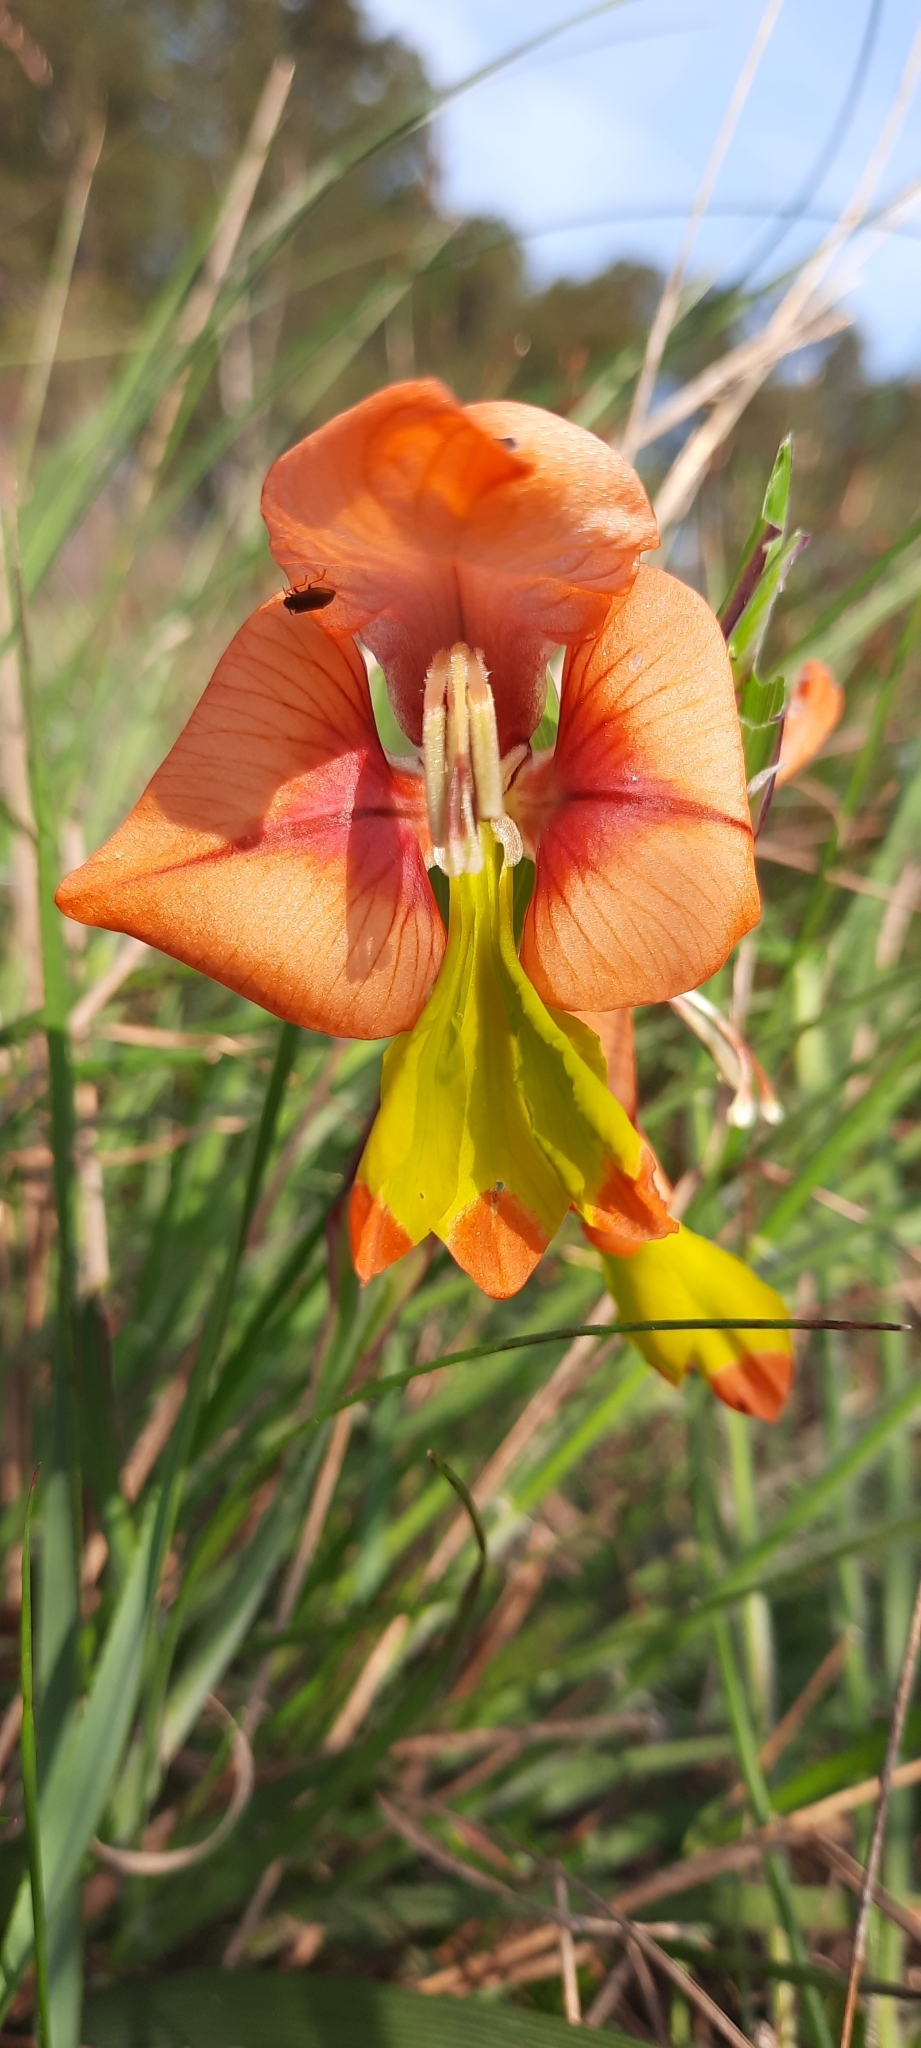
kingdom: Plantae
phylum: Tracheophyta
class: Liliopsida
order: Asparagales
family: Iridaceae
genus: Gladiolus
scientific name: Gladiolus alatus
